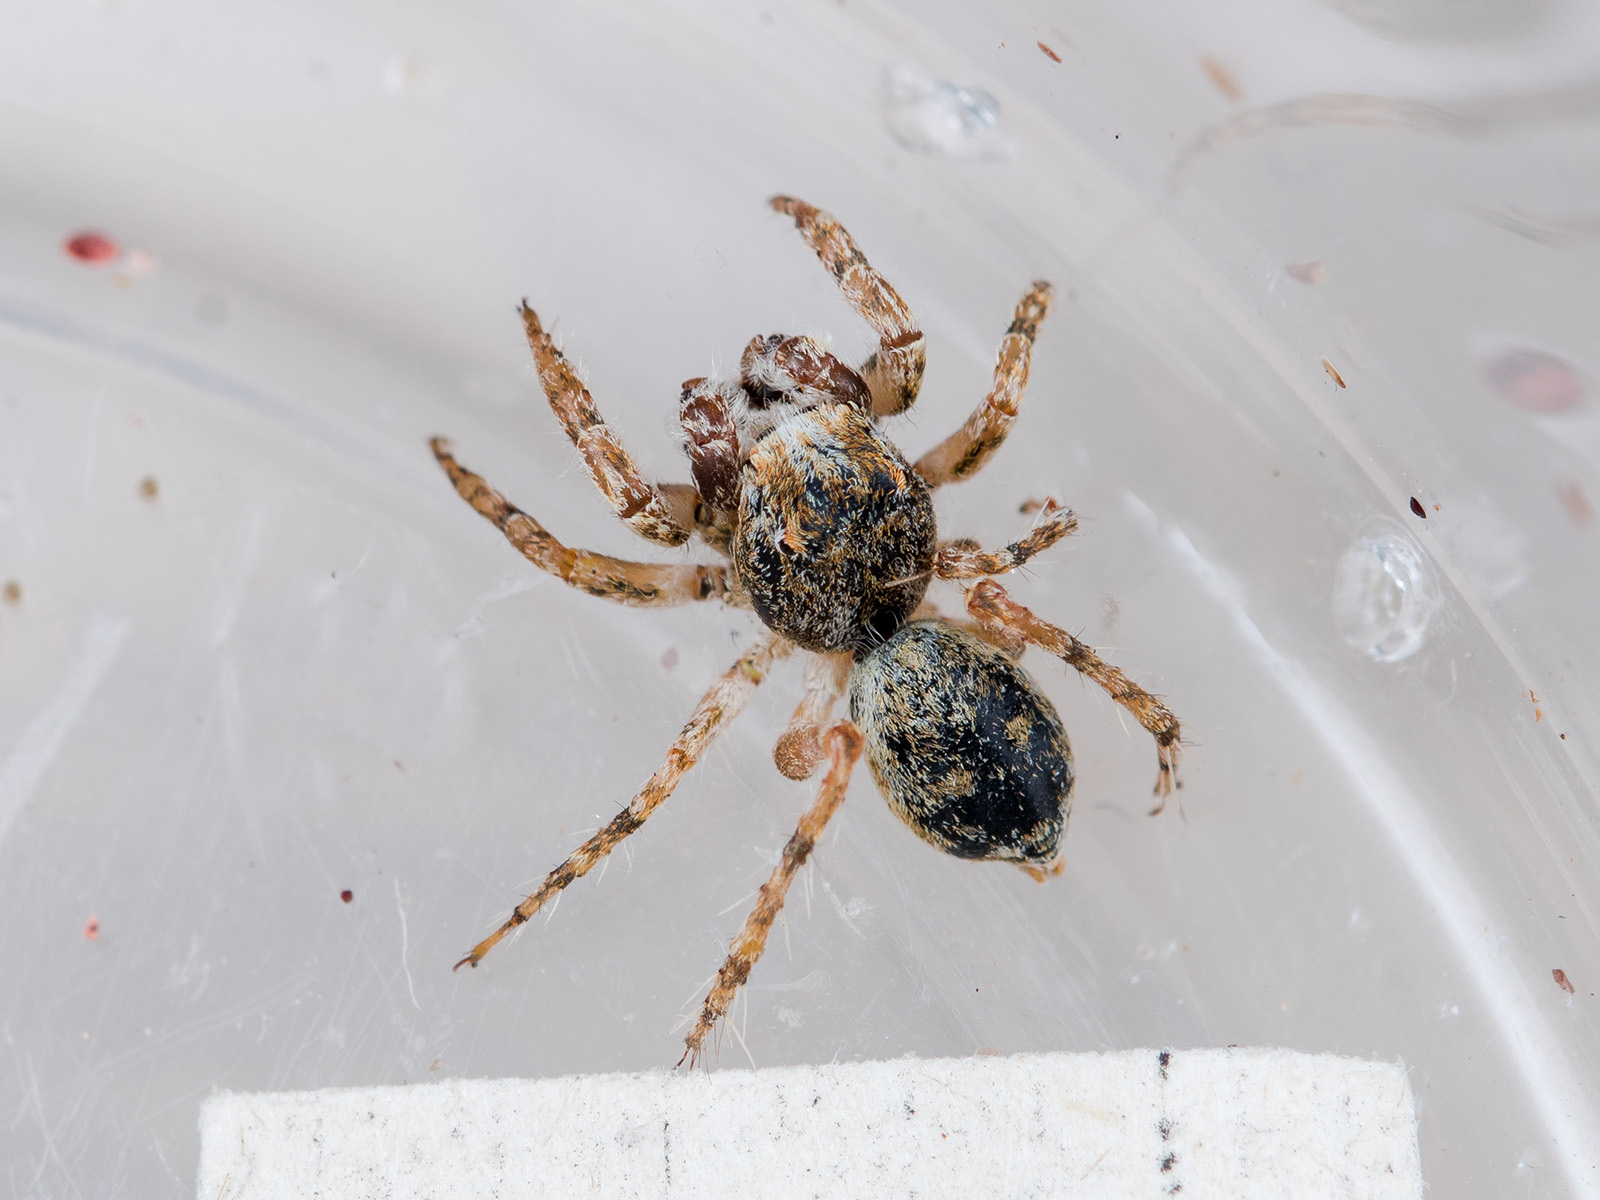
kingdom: Animalia
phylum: Arthropoda
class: Arachnida
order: Araneae
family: Salticidae
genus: Yllenus
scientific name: Yllenus turkestanicus
